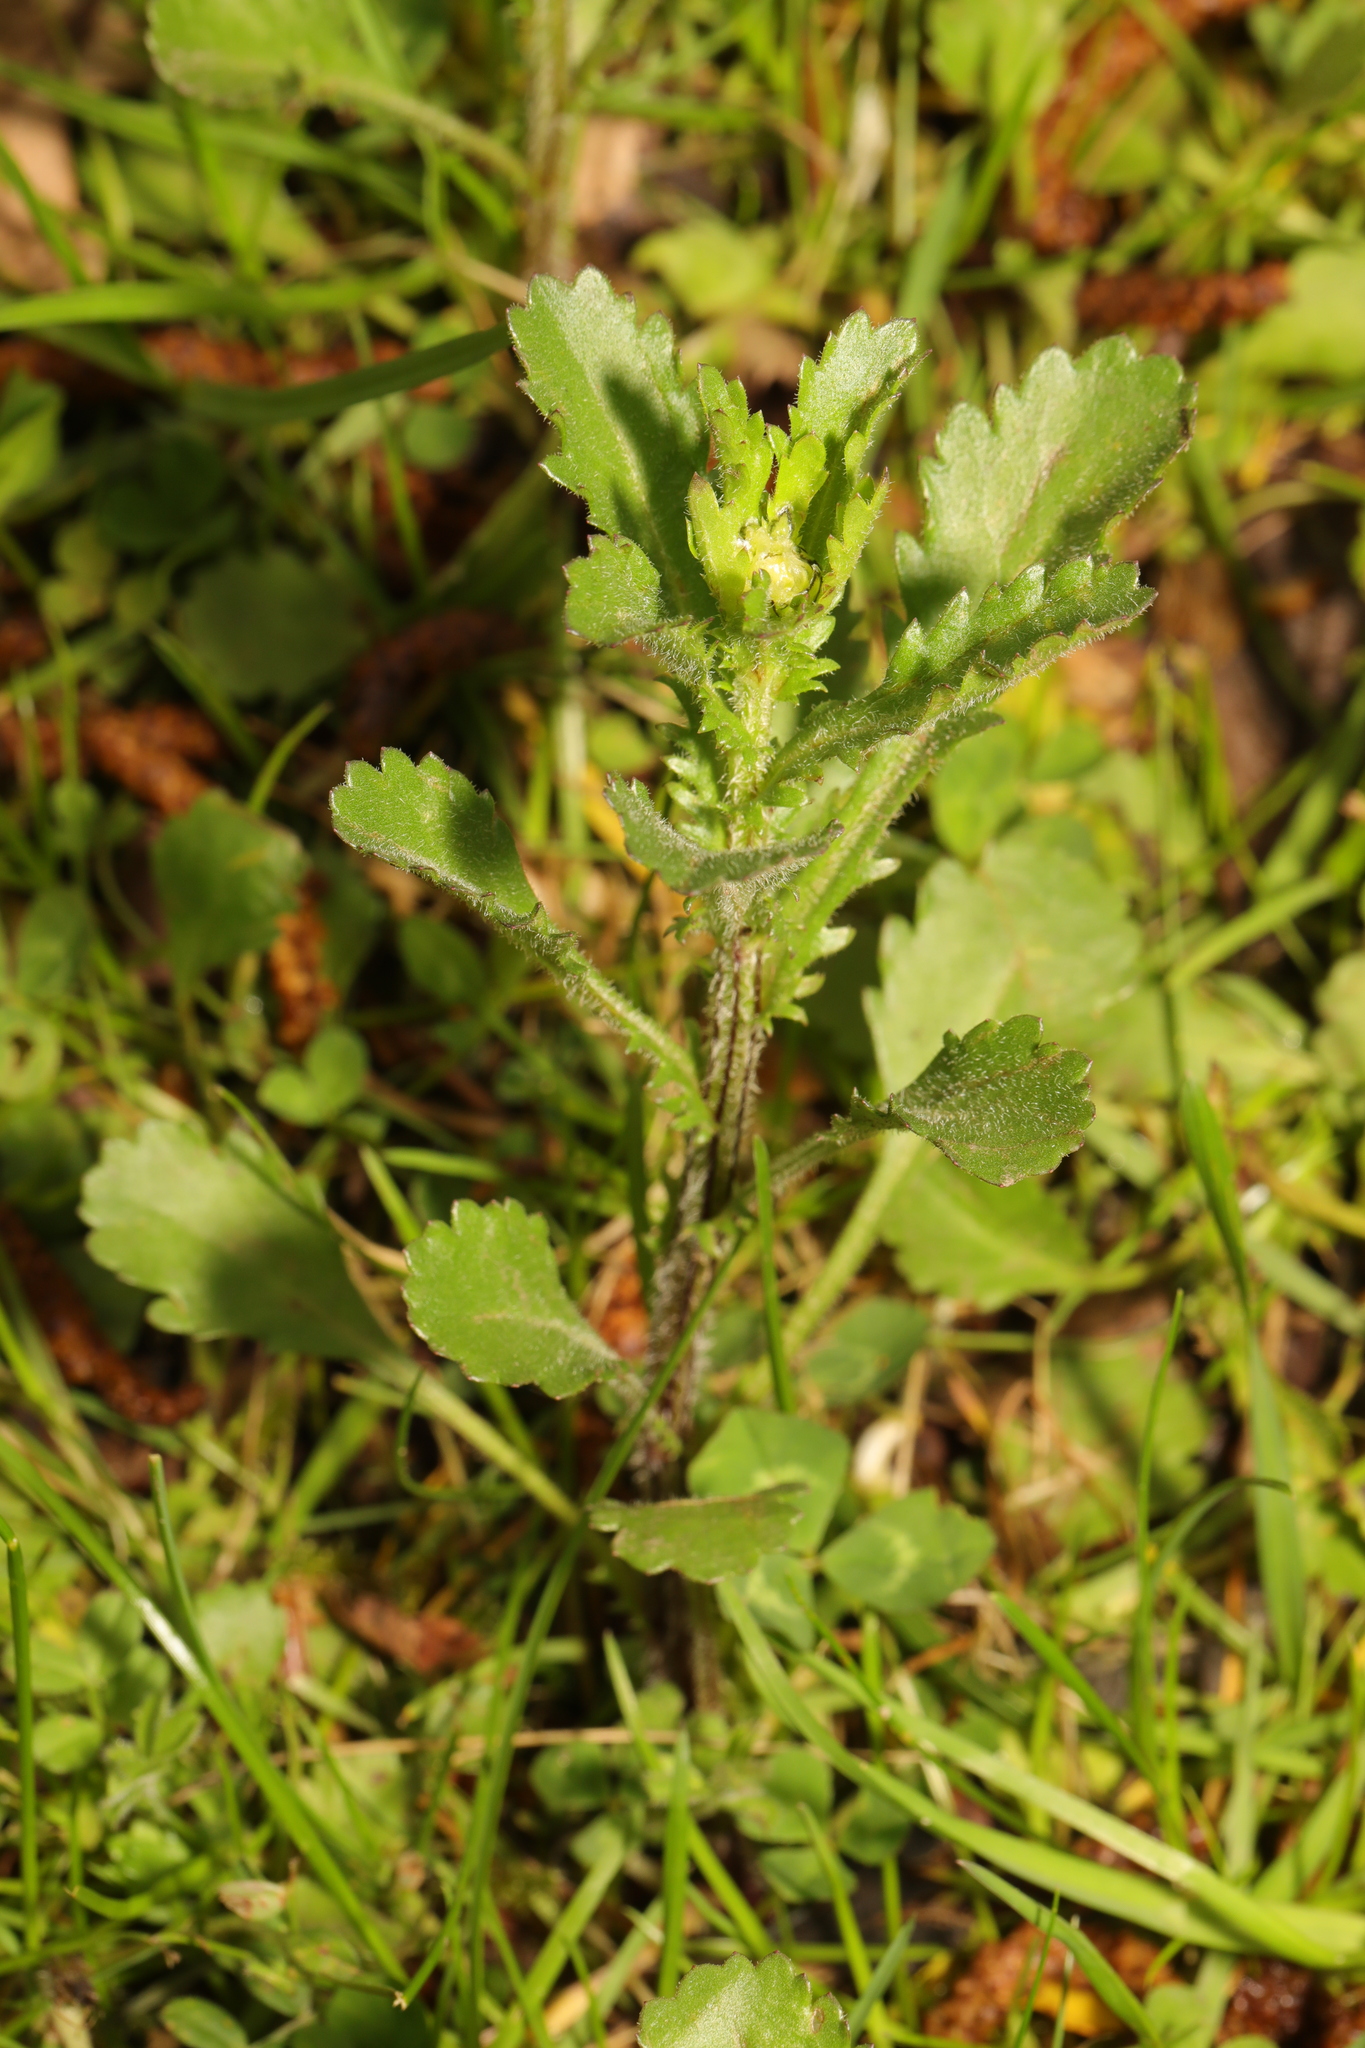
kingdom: Plantae
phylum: Tracheophyta
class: Magnoliopsida
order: Asterales
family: Asteraceae
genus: Leucanthemum
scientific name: Leucanthemum ircutianum
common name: Daisy
